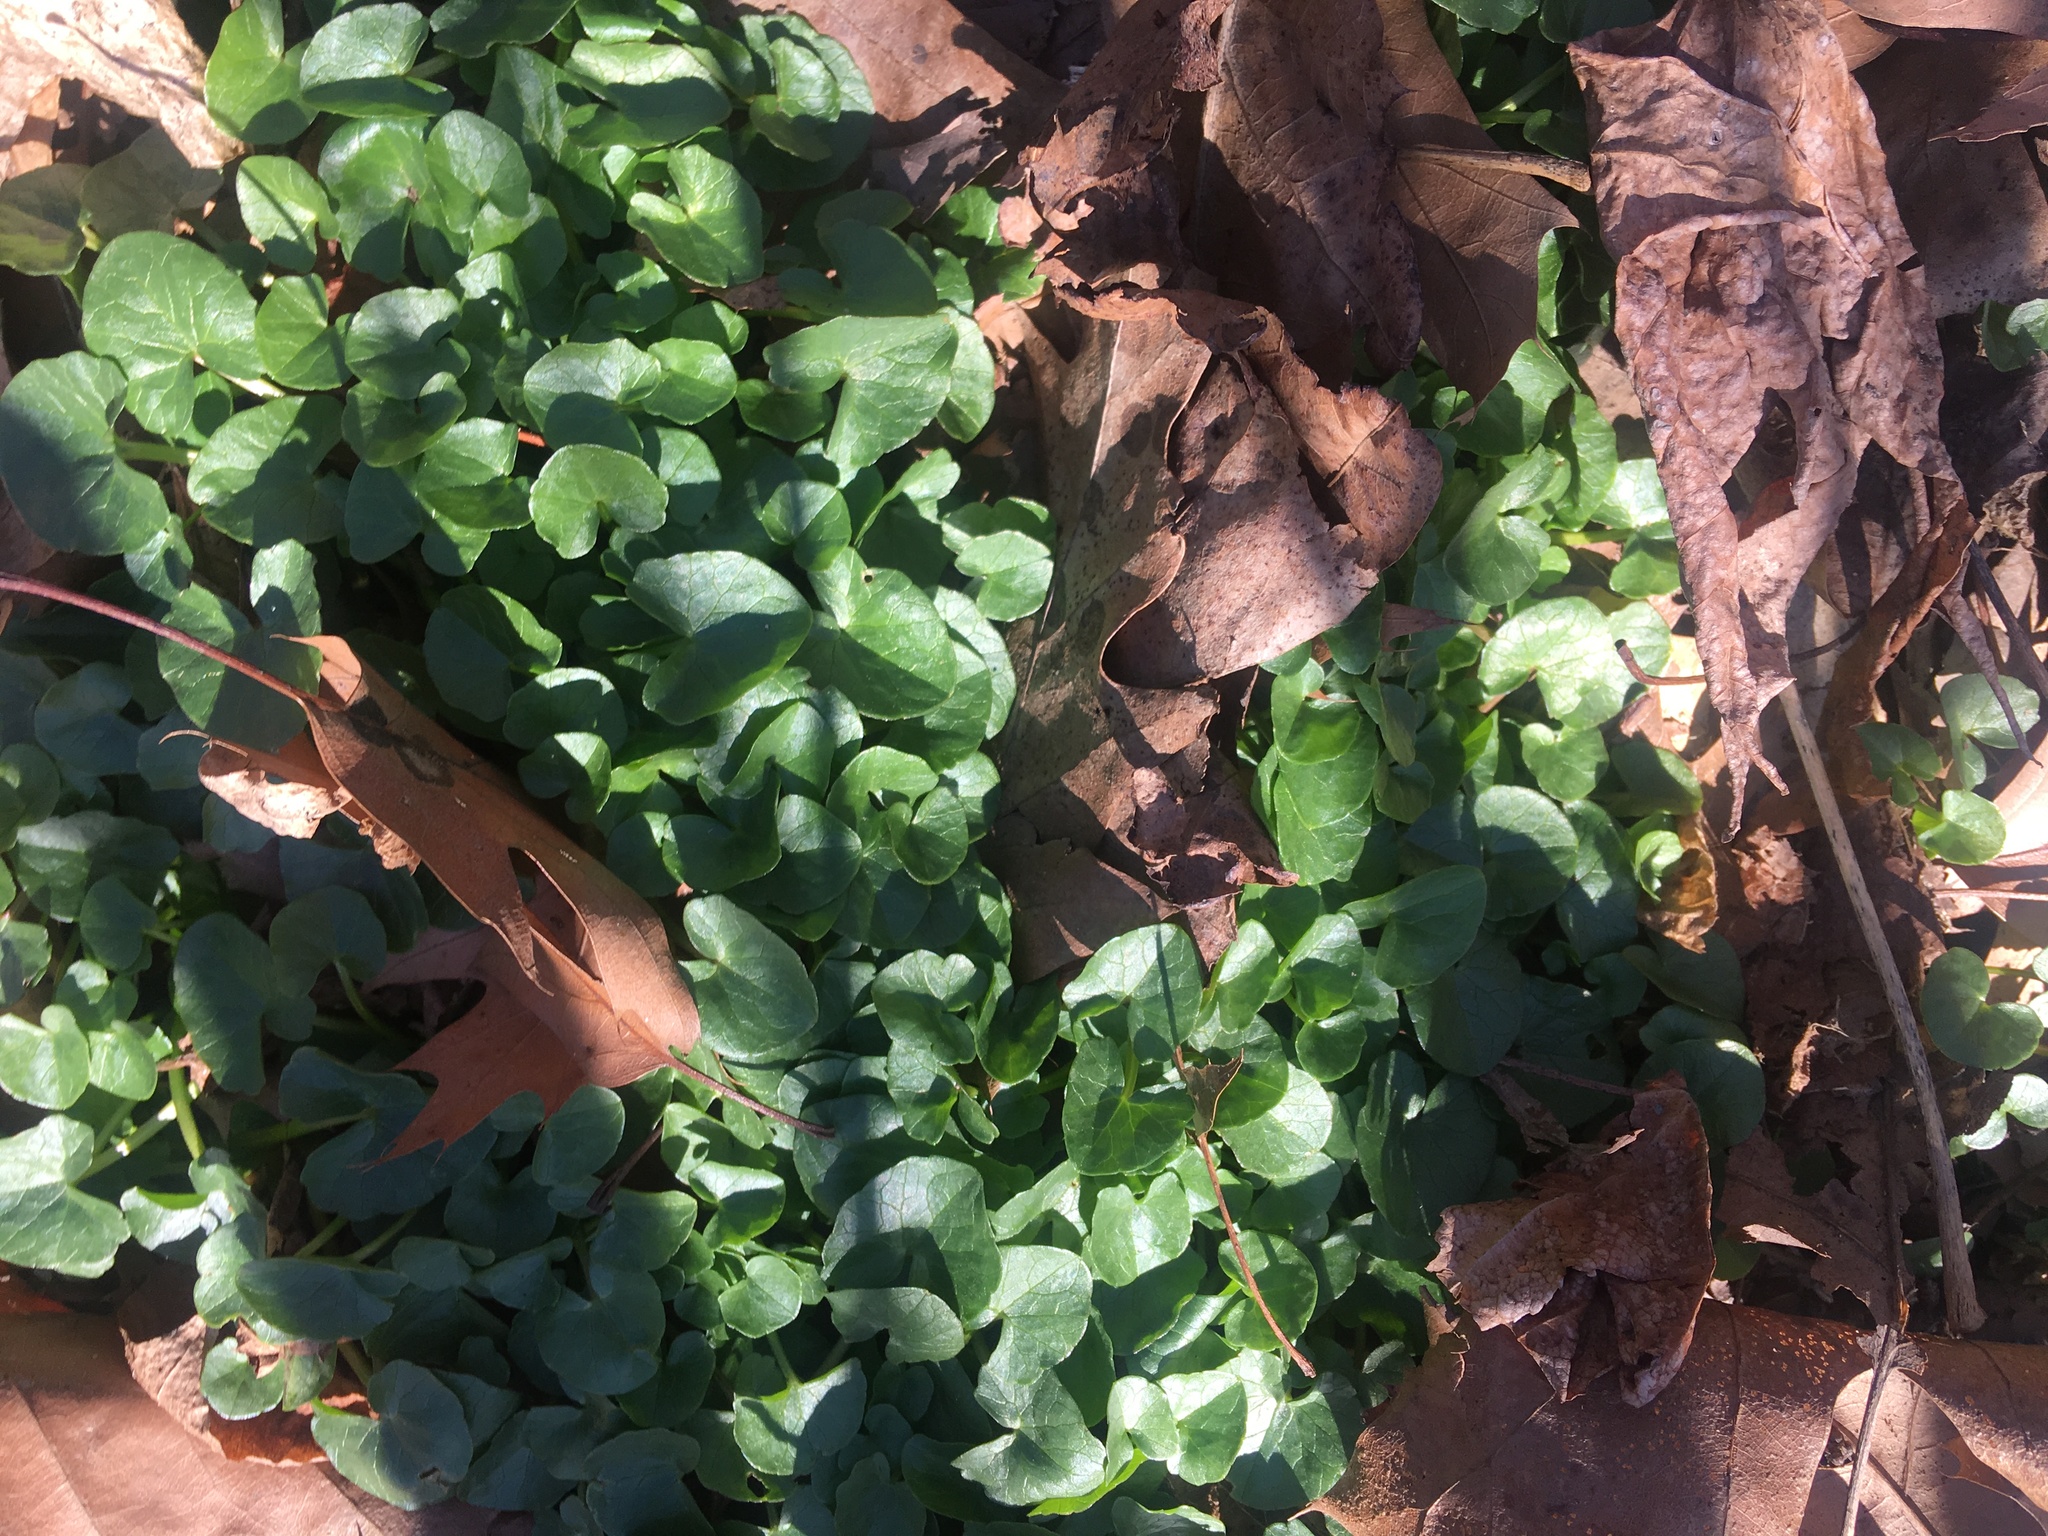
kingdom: Plantae
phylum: Tracheophyta
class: Magnoliopsida
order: Ranunculales
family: Ranunculaceae
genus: Ficaria
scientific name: Ficaria verna
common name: Lesser celandine
